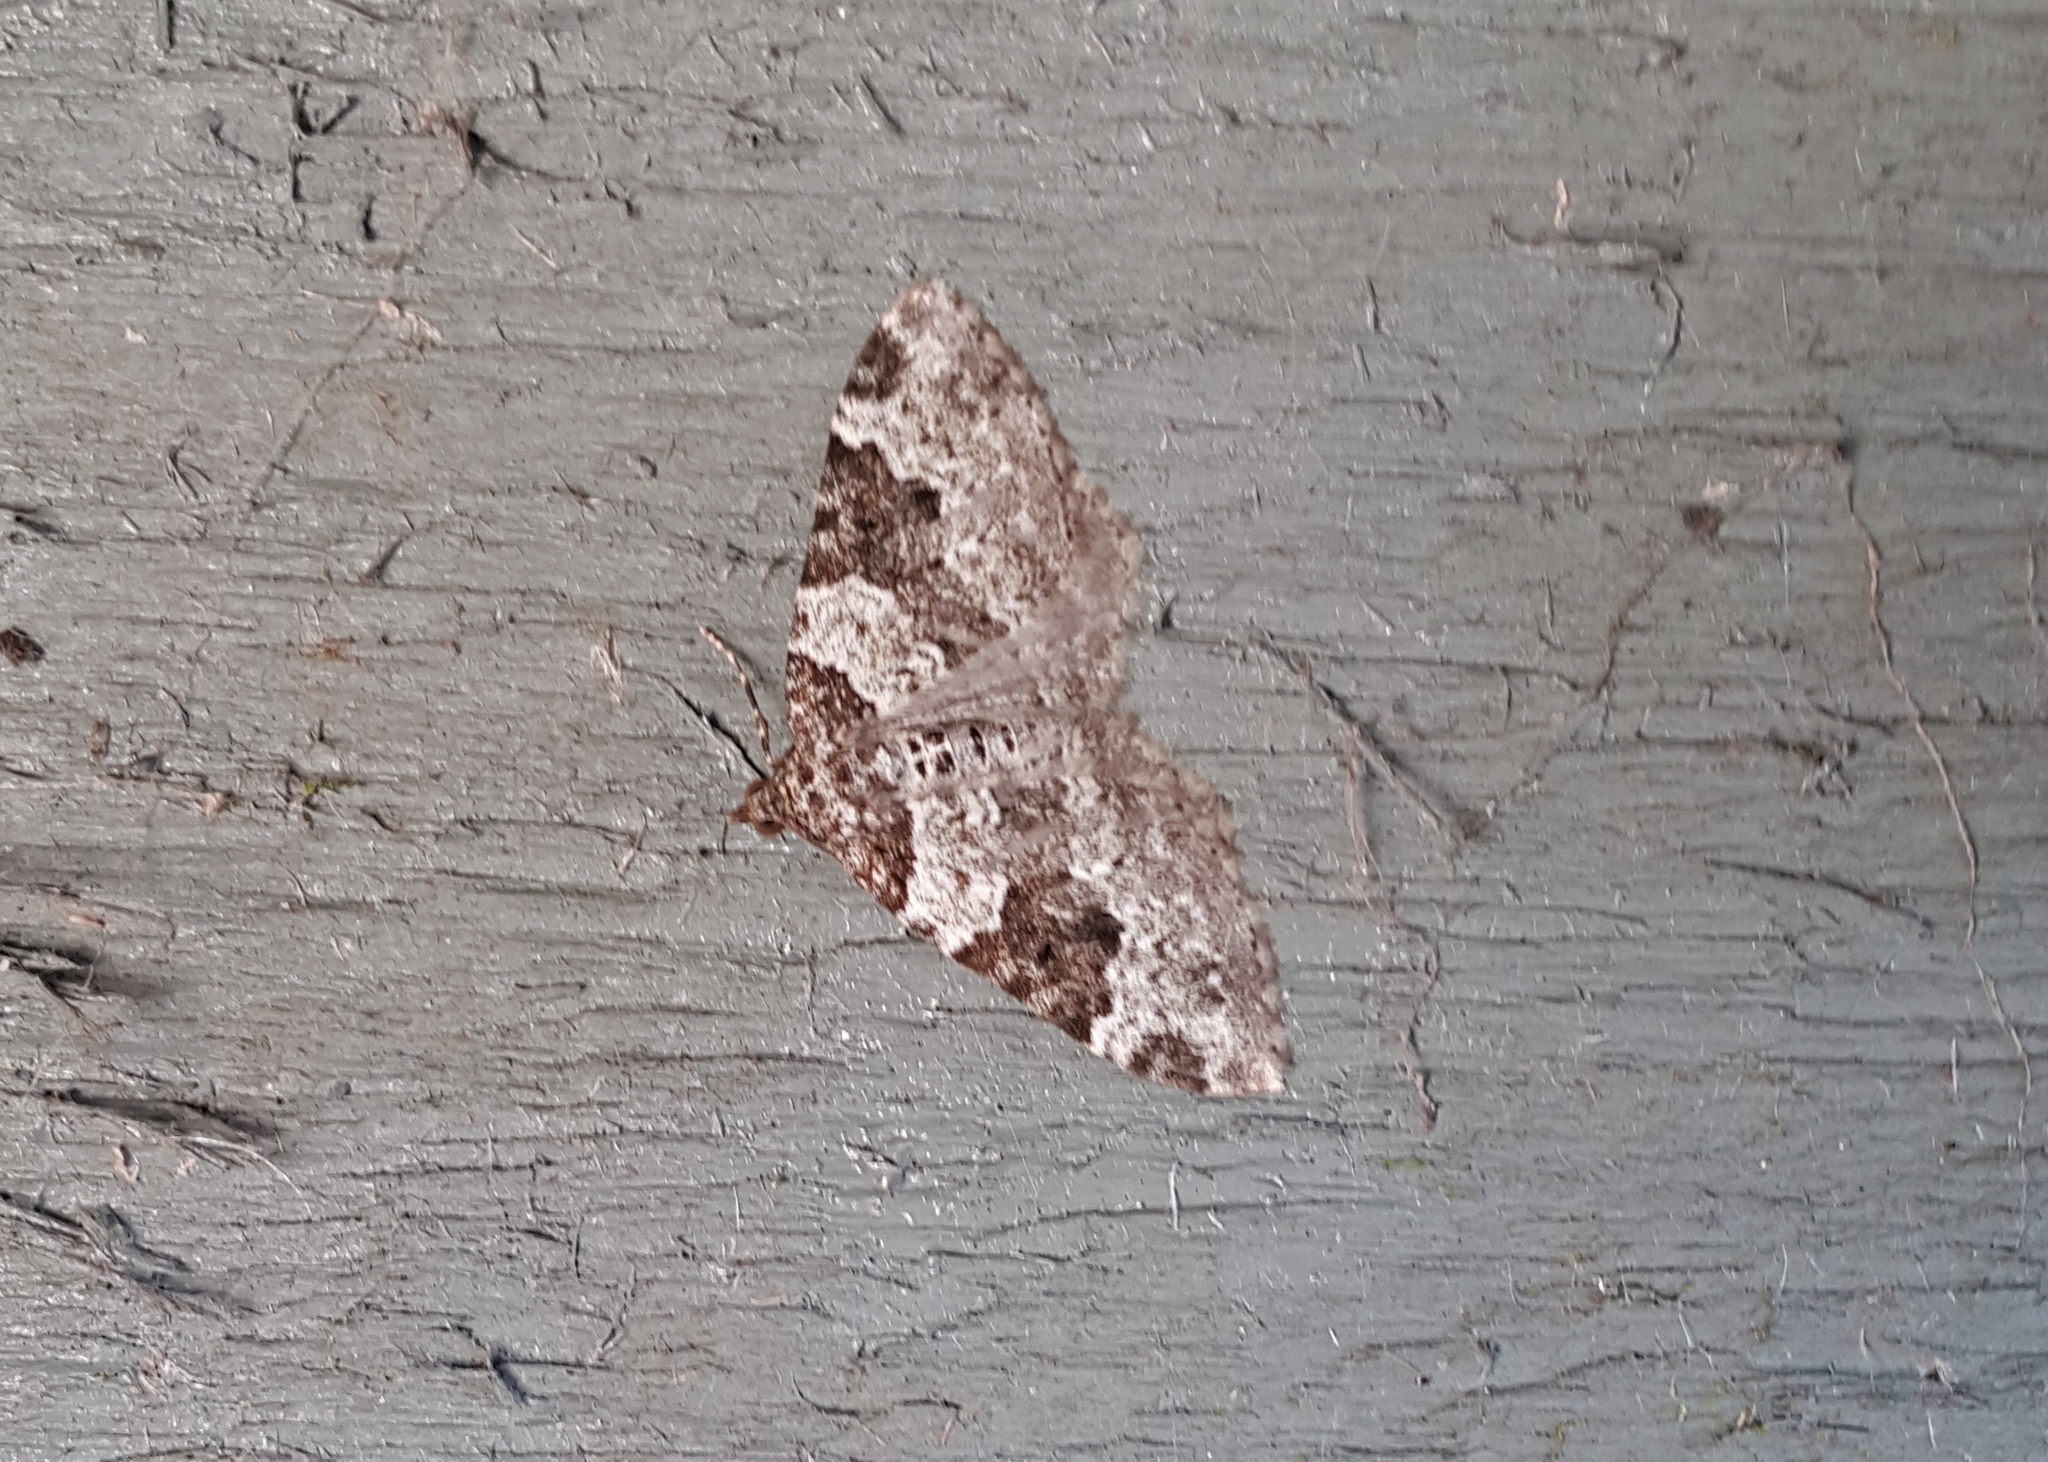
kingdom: Animalia
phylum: Arthropoda
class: Insecta
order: Lepidoptera
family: Geometridae
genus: Xanthorhoe
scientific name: Xanthorhoe fluctuata
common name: Garden carpet
